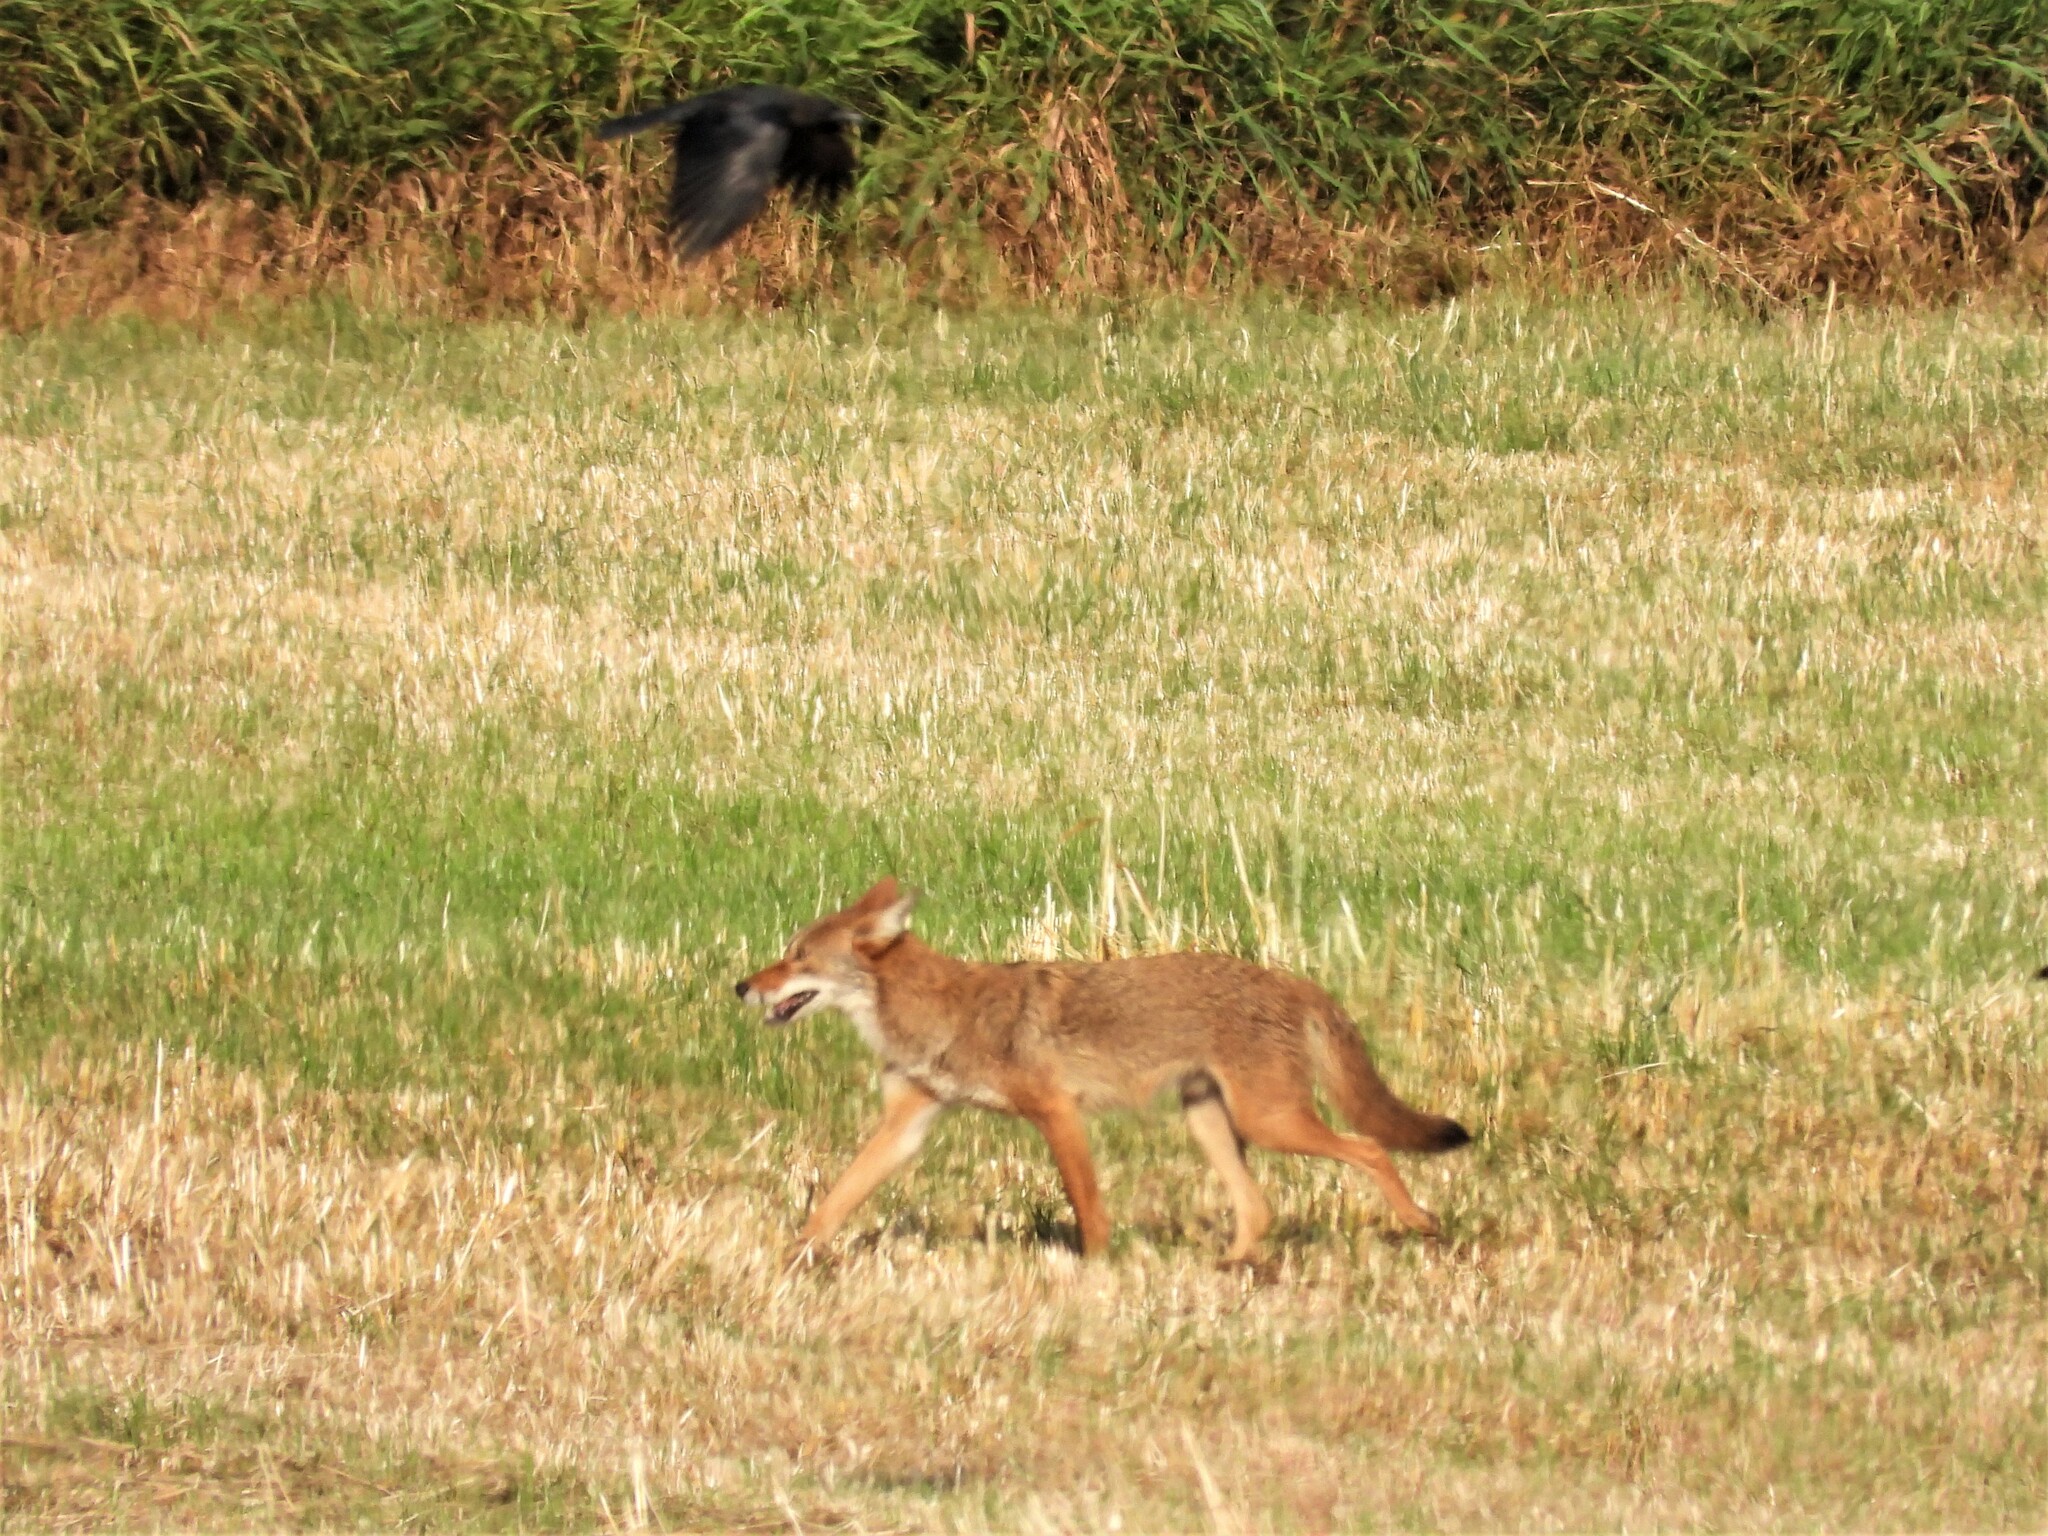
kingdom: Animalia
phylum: Chordata
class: Mammalia
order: Carnivora
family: Canidae
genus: Canis
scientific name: Canis latrans
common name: Coyote
